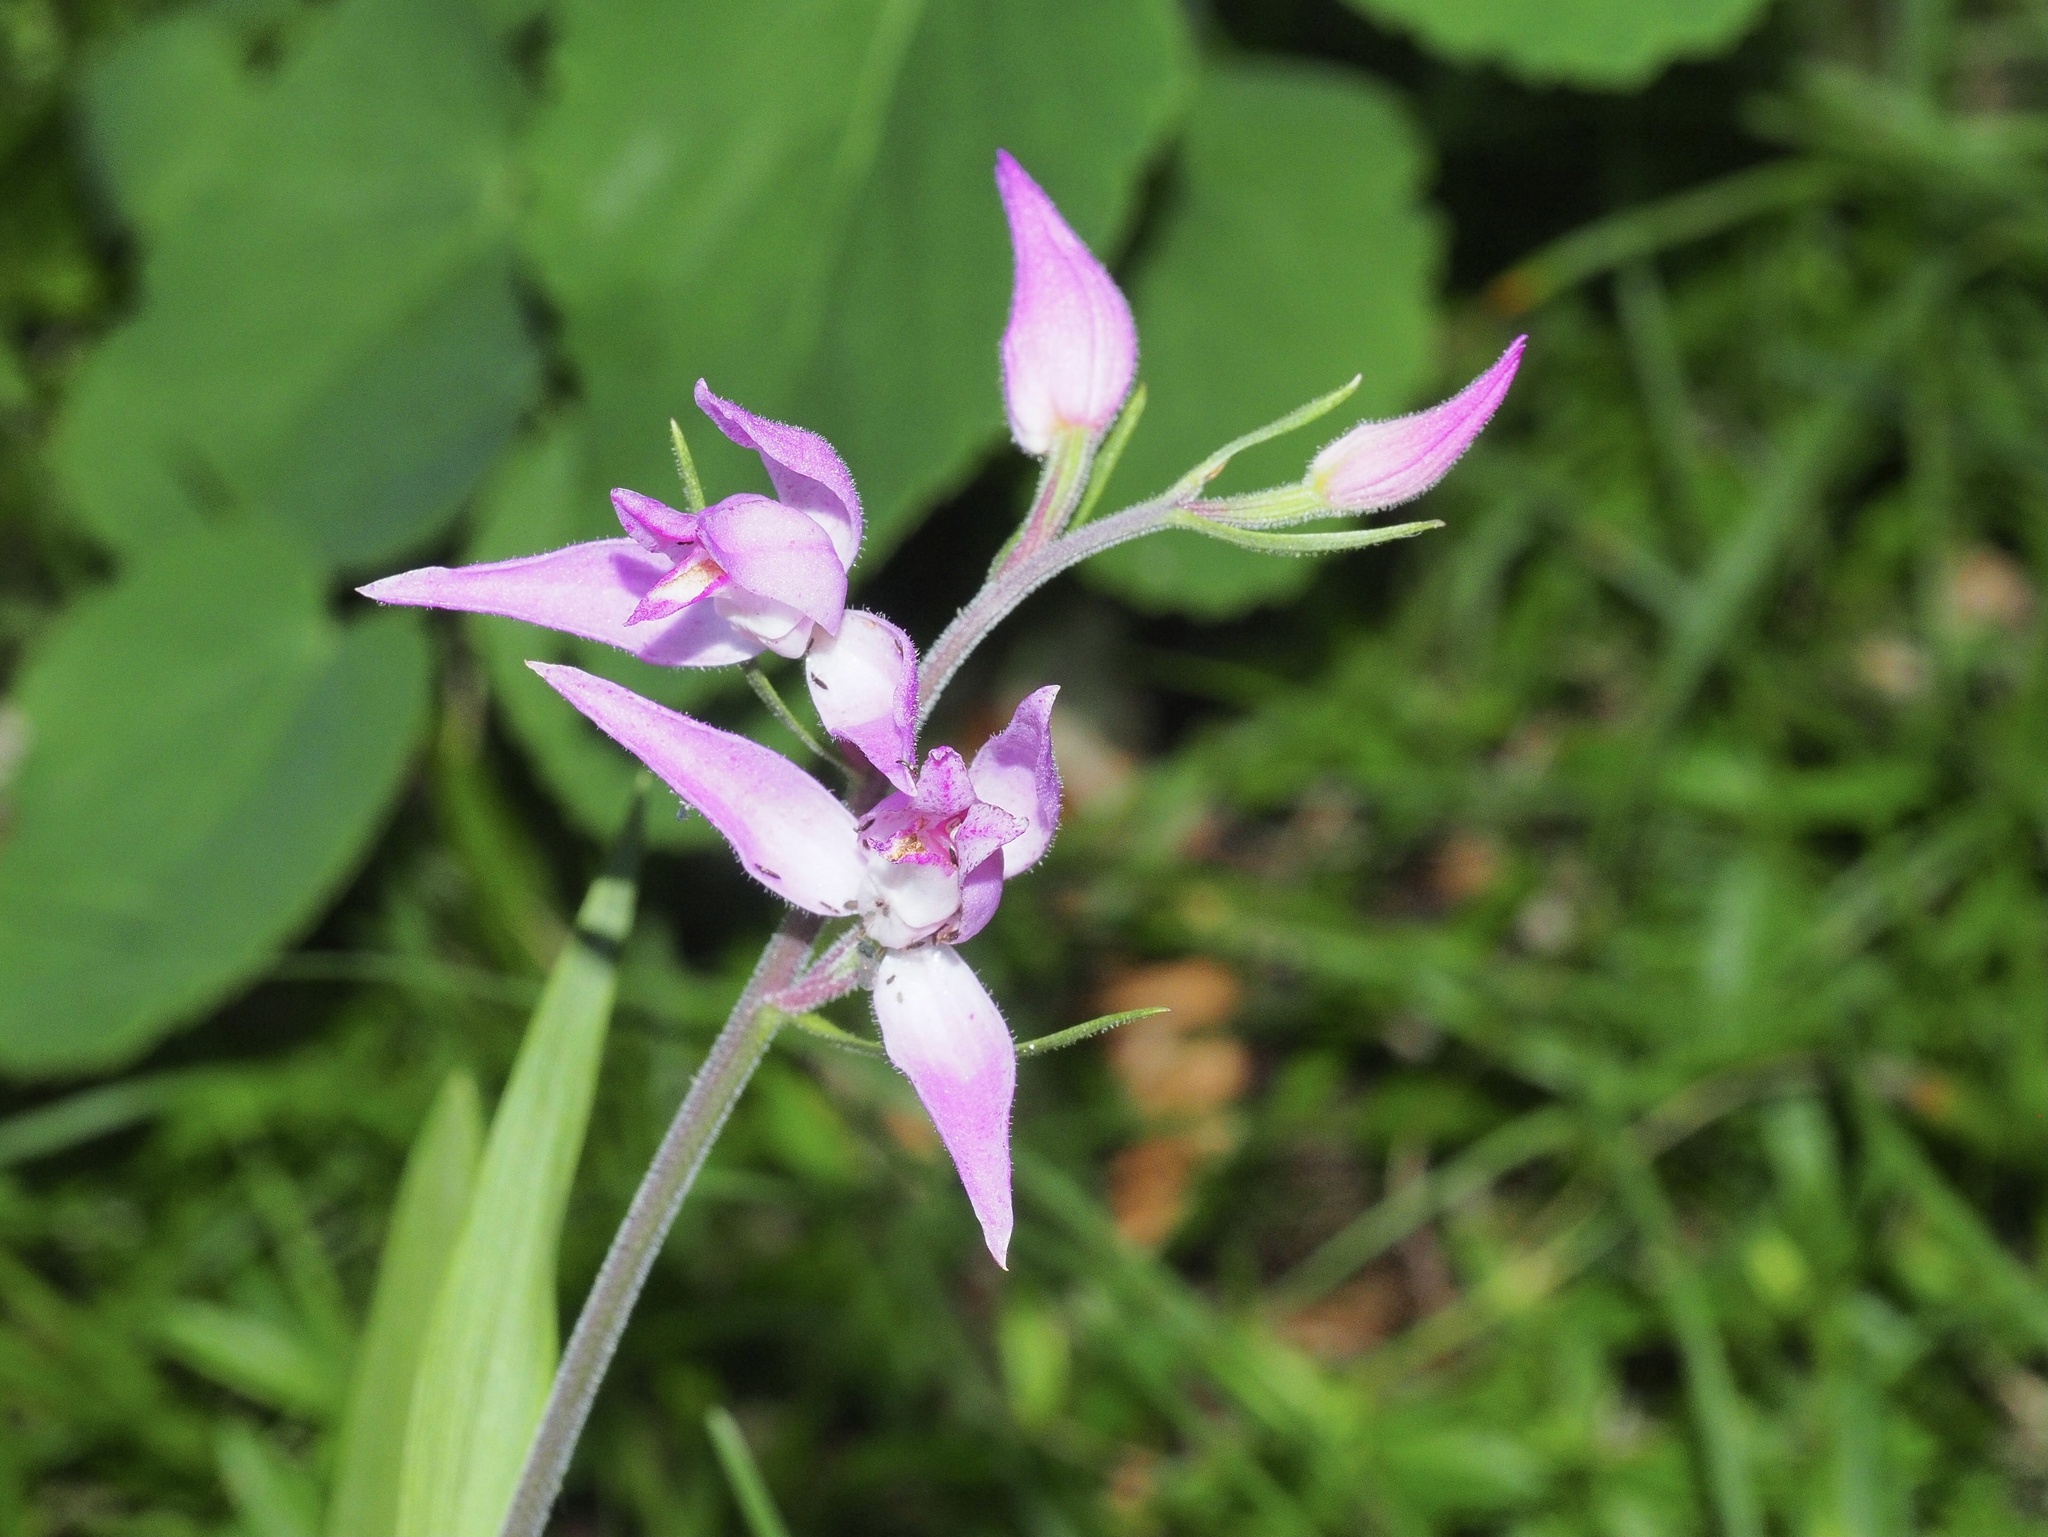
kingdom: Plantae
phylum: Tracheophyta
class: Liliopsida
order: Asparagales
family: Orchidaceae
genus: Cephalanthera
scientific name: Cephalanthera rubra
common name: Red helleborine
